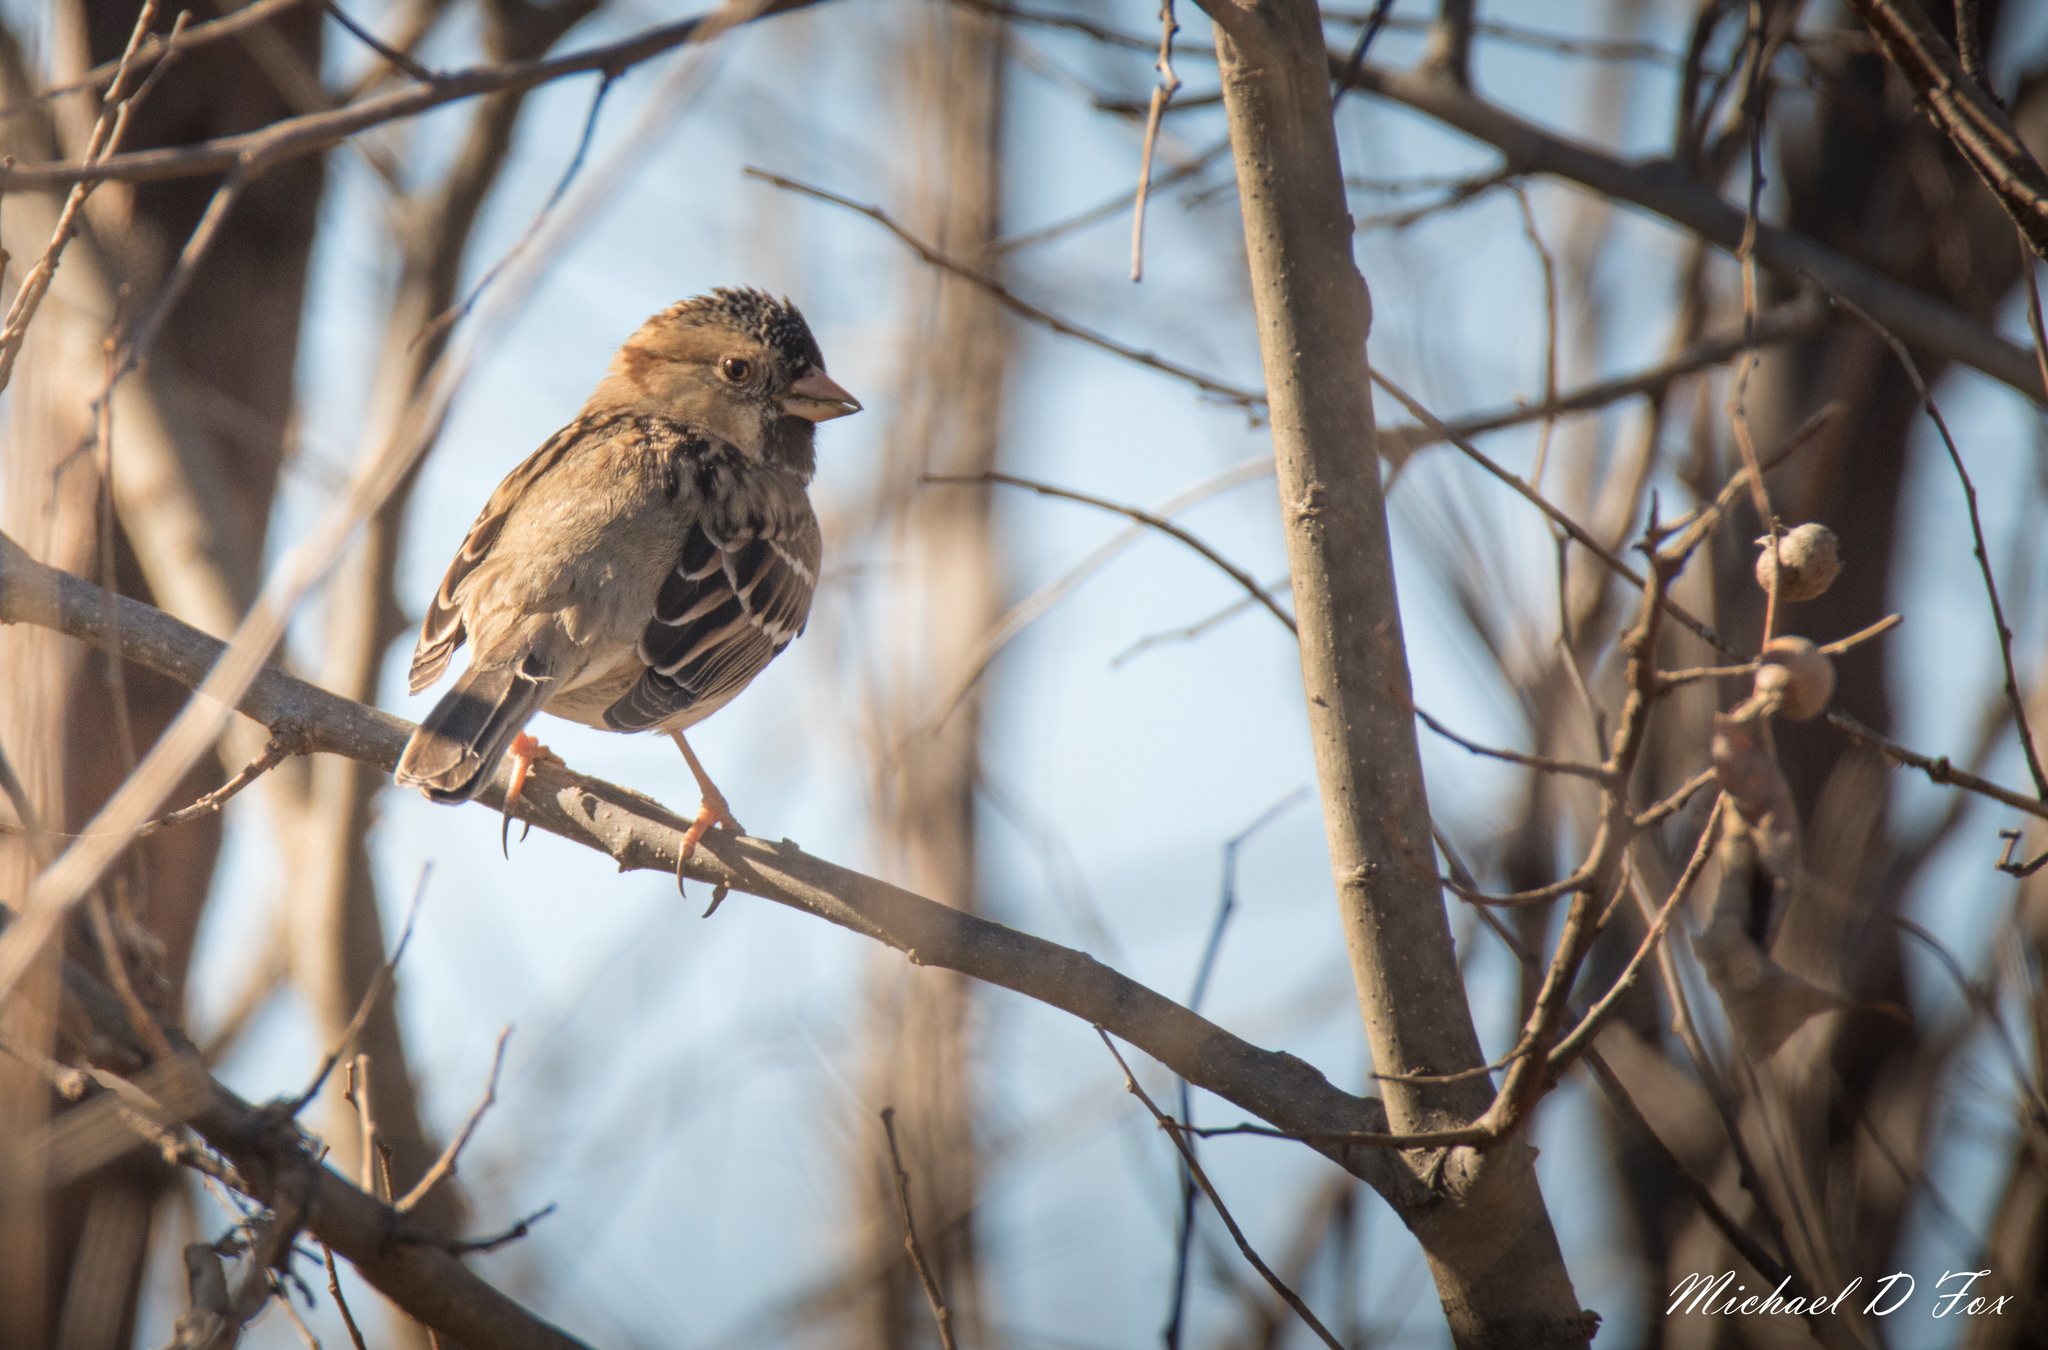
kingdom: Animalia
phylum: Chordata
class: Aves
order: Passeriformes
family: Passerellidae
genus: Zonotrichia
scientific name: Zonotrichia querula
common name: Harris's sparrow
